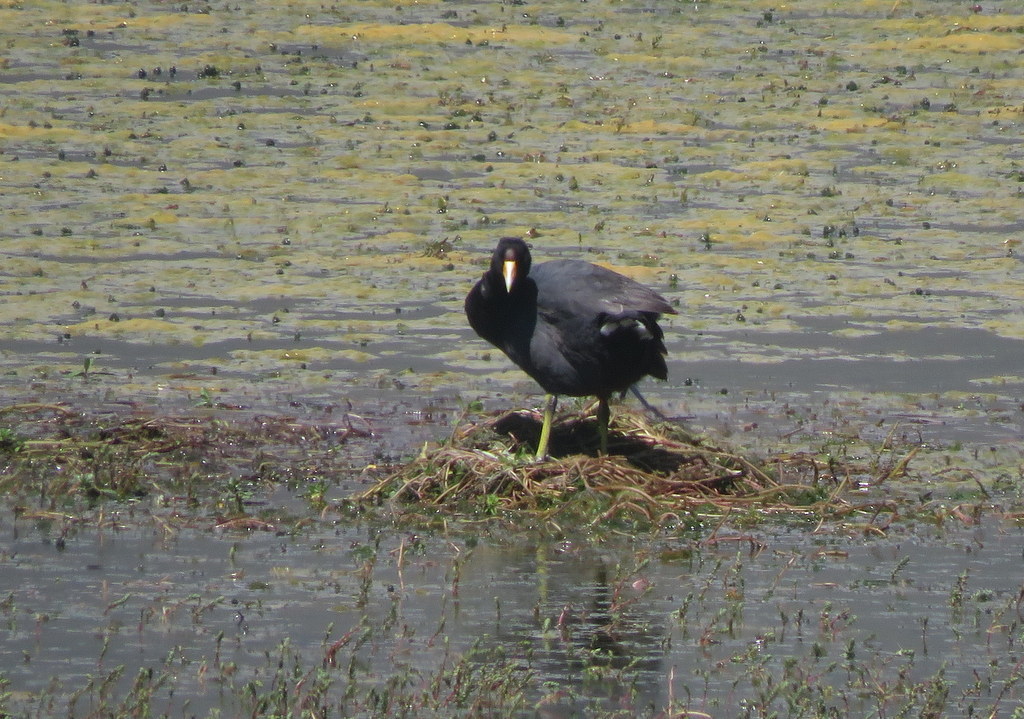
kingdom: Animalia
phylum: Chordata
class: Aves
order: Gruiformes
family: Rallidae
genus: Fulica
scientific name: Fulica ardesiaca
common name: Andean coot
